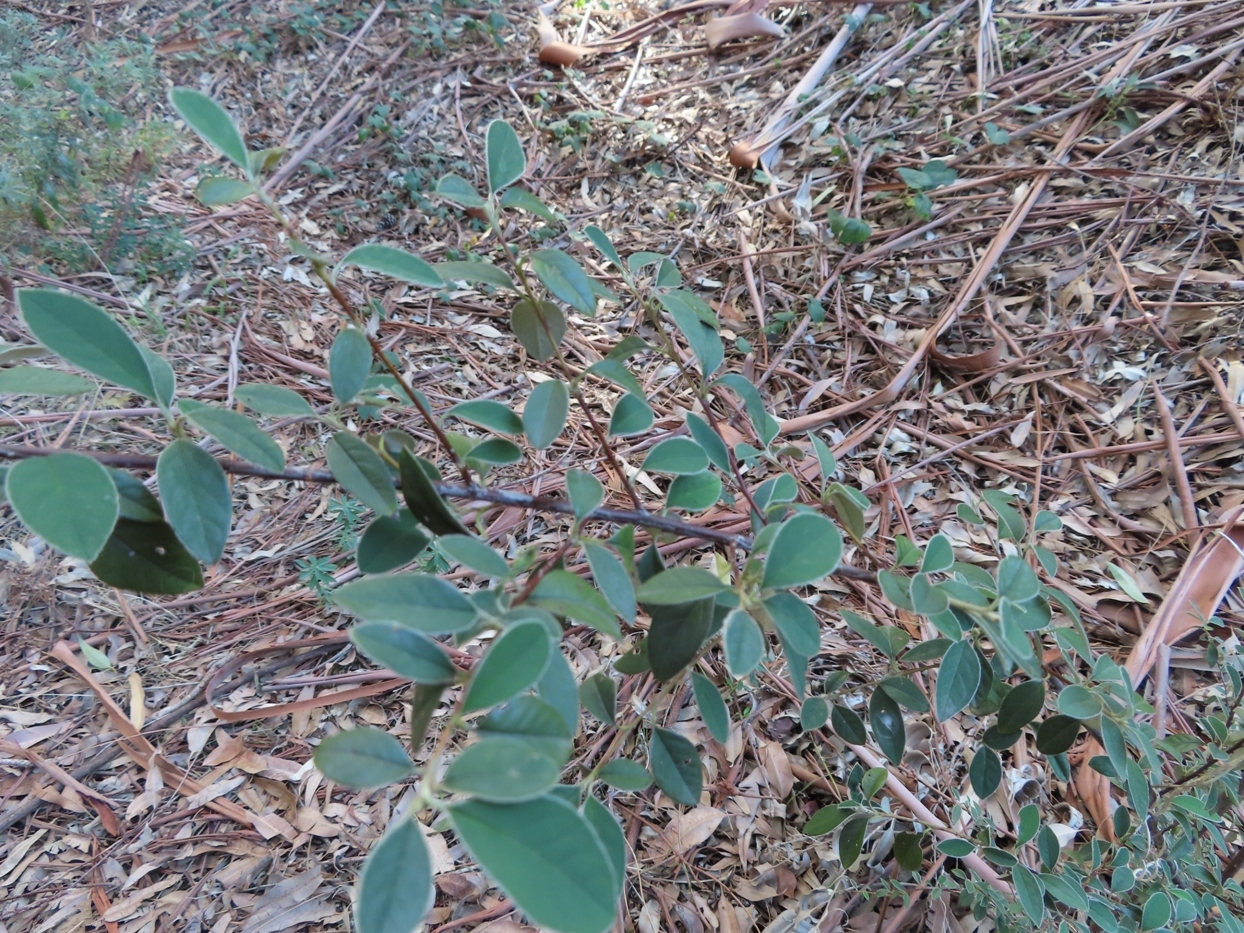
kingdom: Plantae
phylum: Tracheophyta
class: Magnoliopsida
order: Rosales
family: Rosaceae
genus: Cotoneaster
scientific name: Cotoneaster pannosus
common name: Silverleaf cotoneaster
